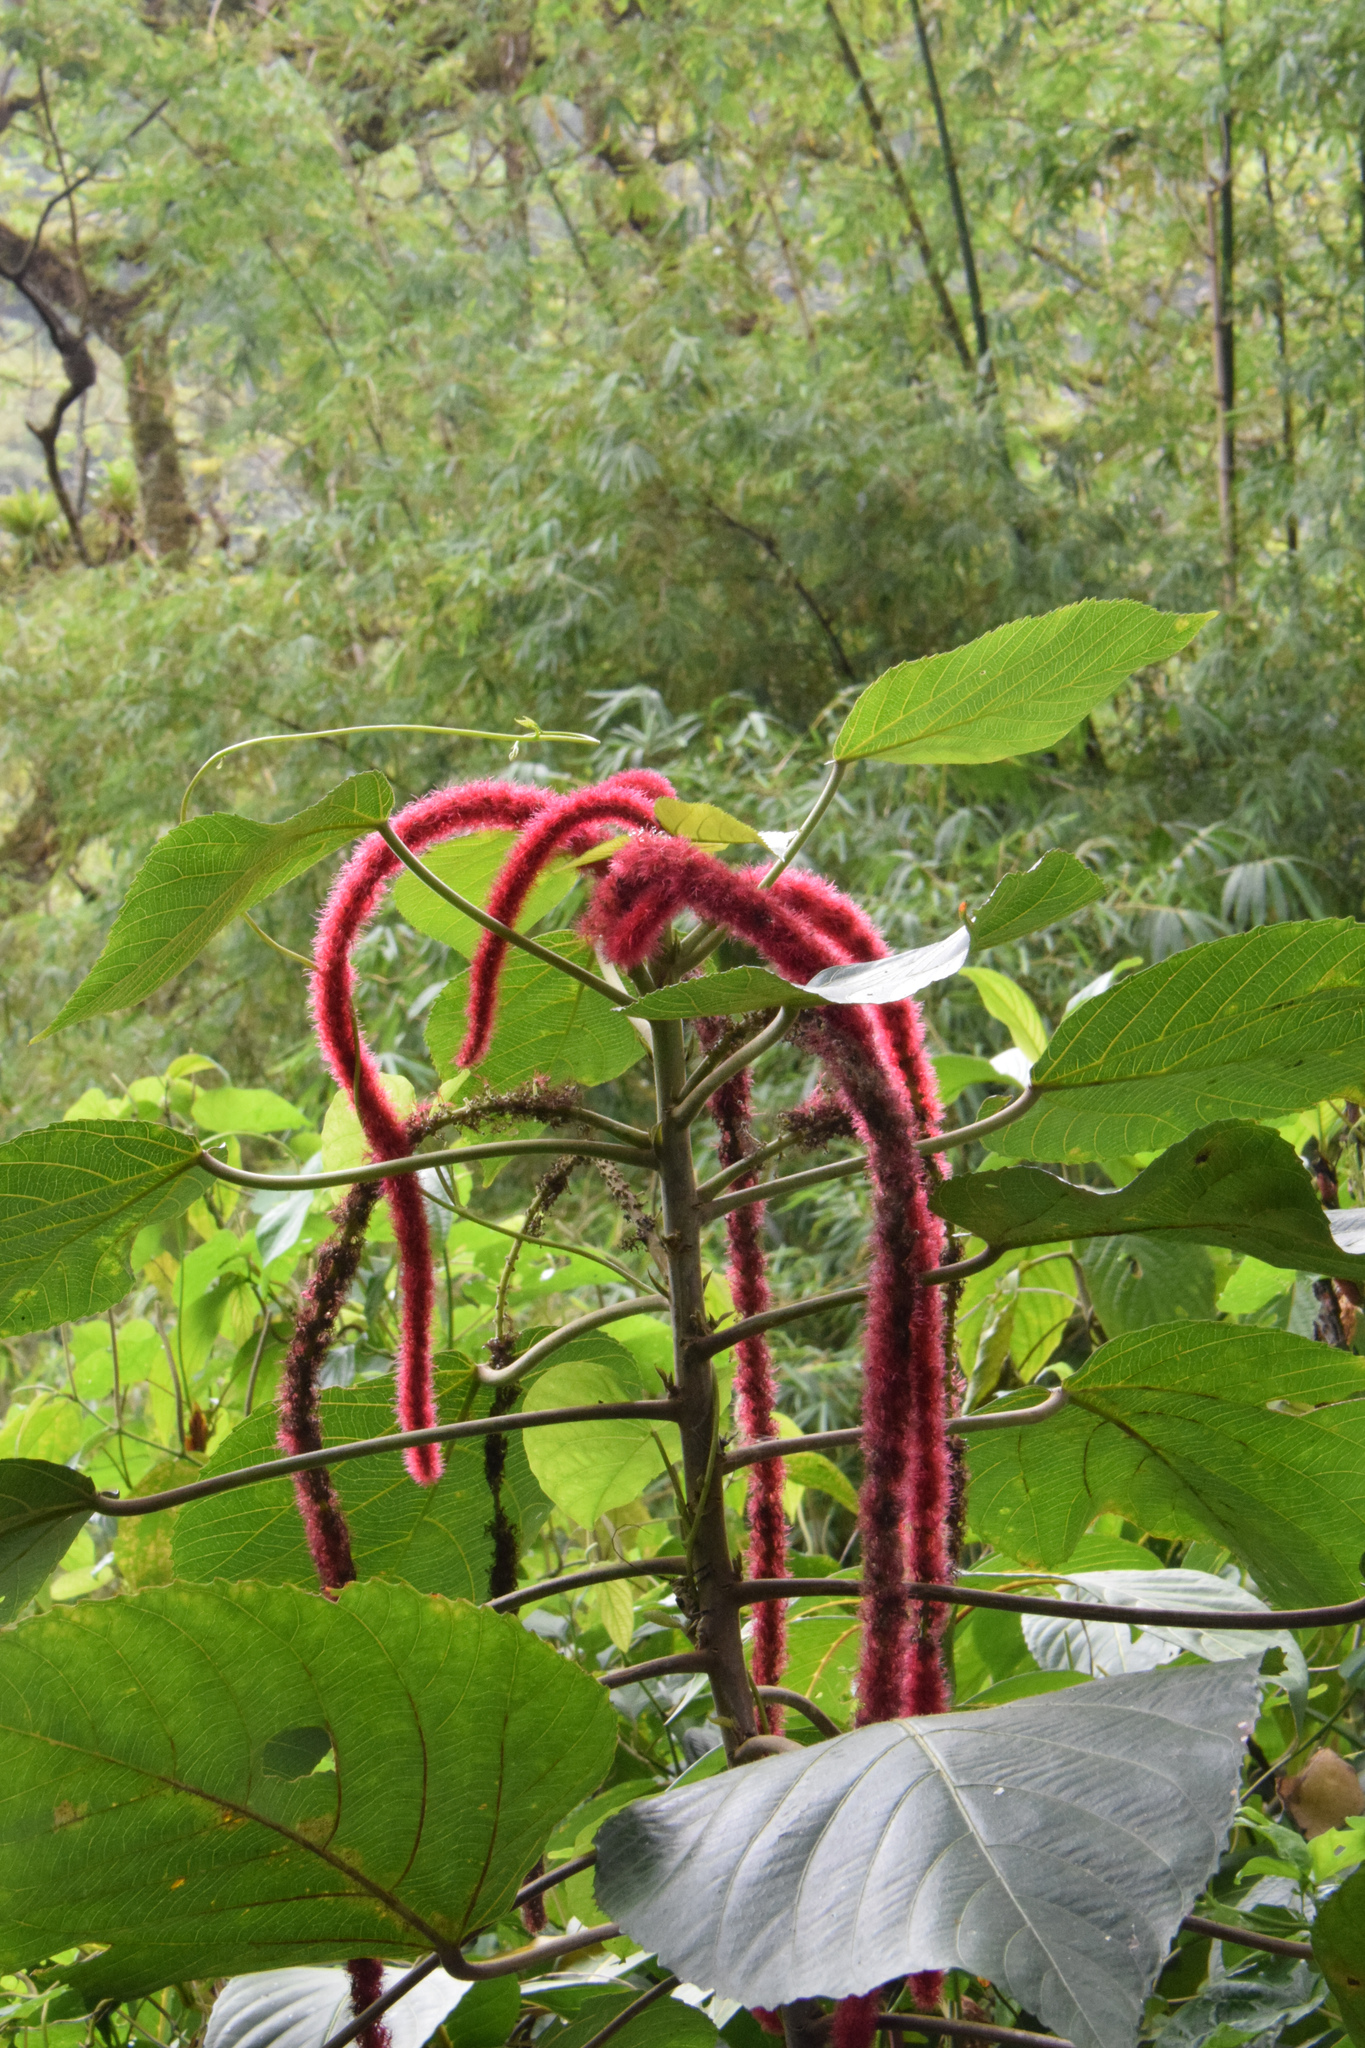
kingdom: Plantae
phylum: Tracheophyta
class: Magnoliopsida
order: Malpighiales
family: Euphorbiaceae
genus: Acalypha
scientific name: Acalypha hispida
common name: Chenilleplant
